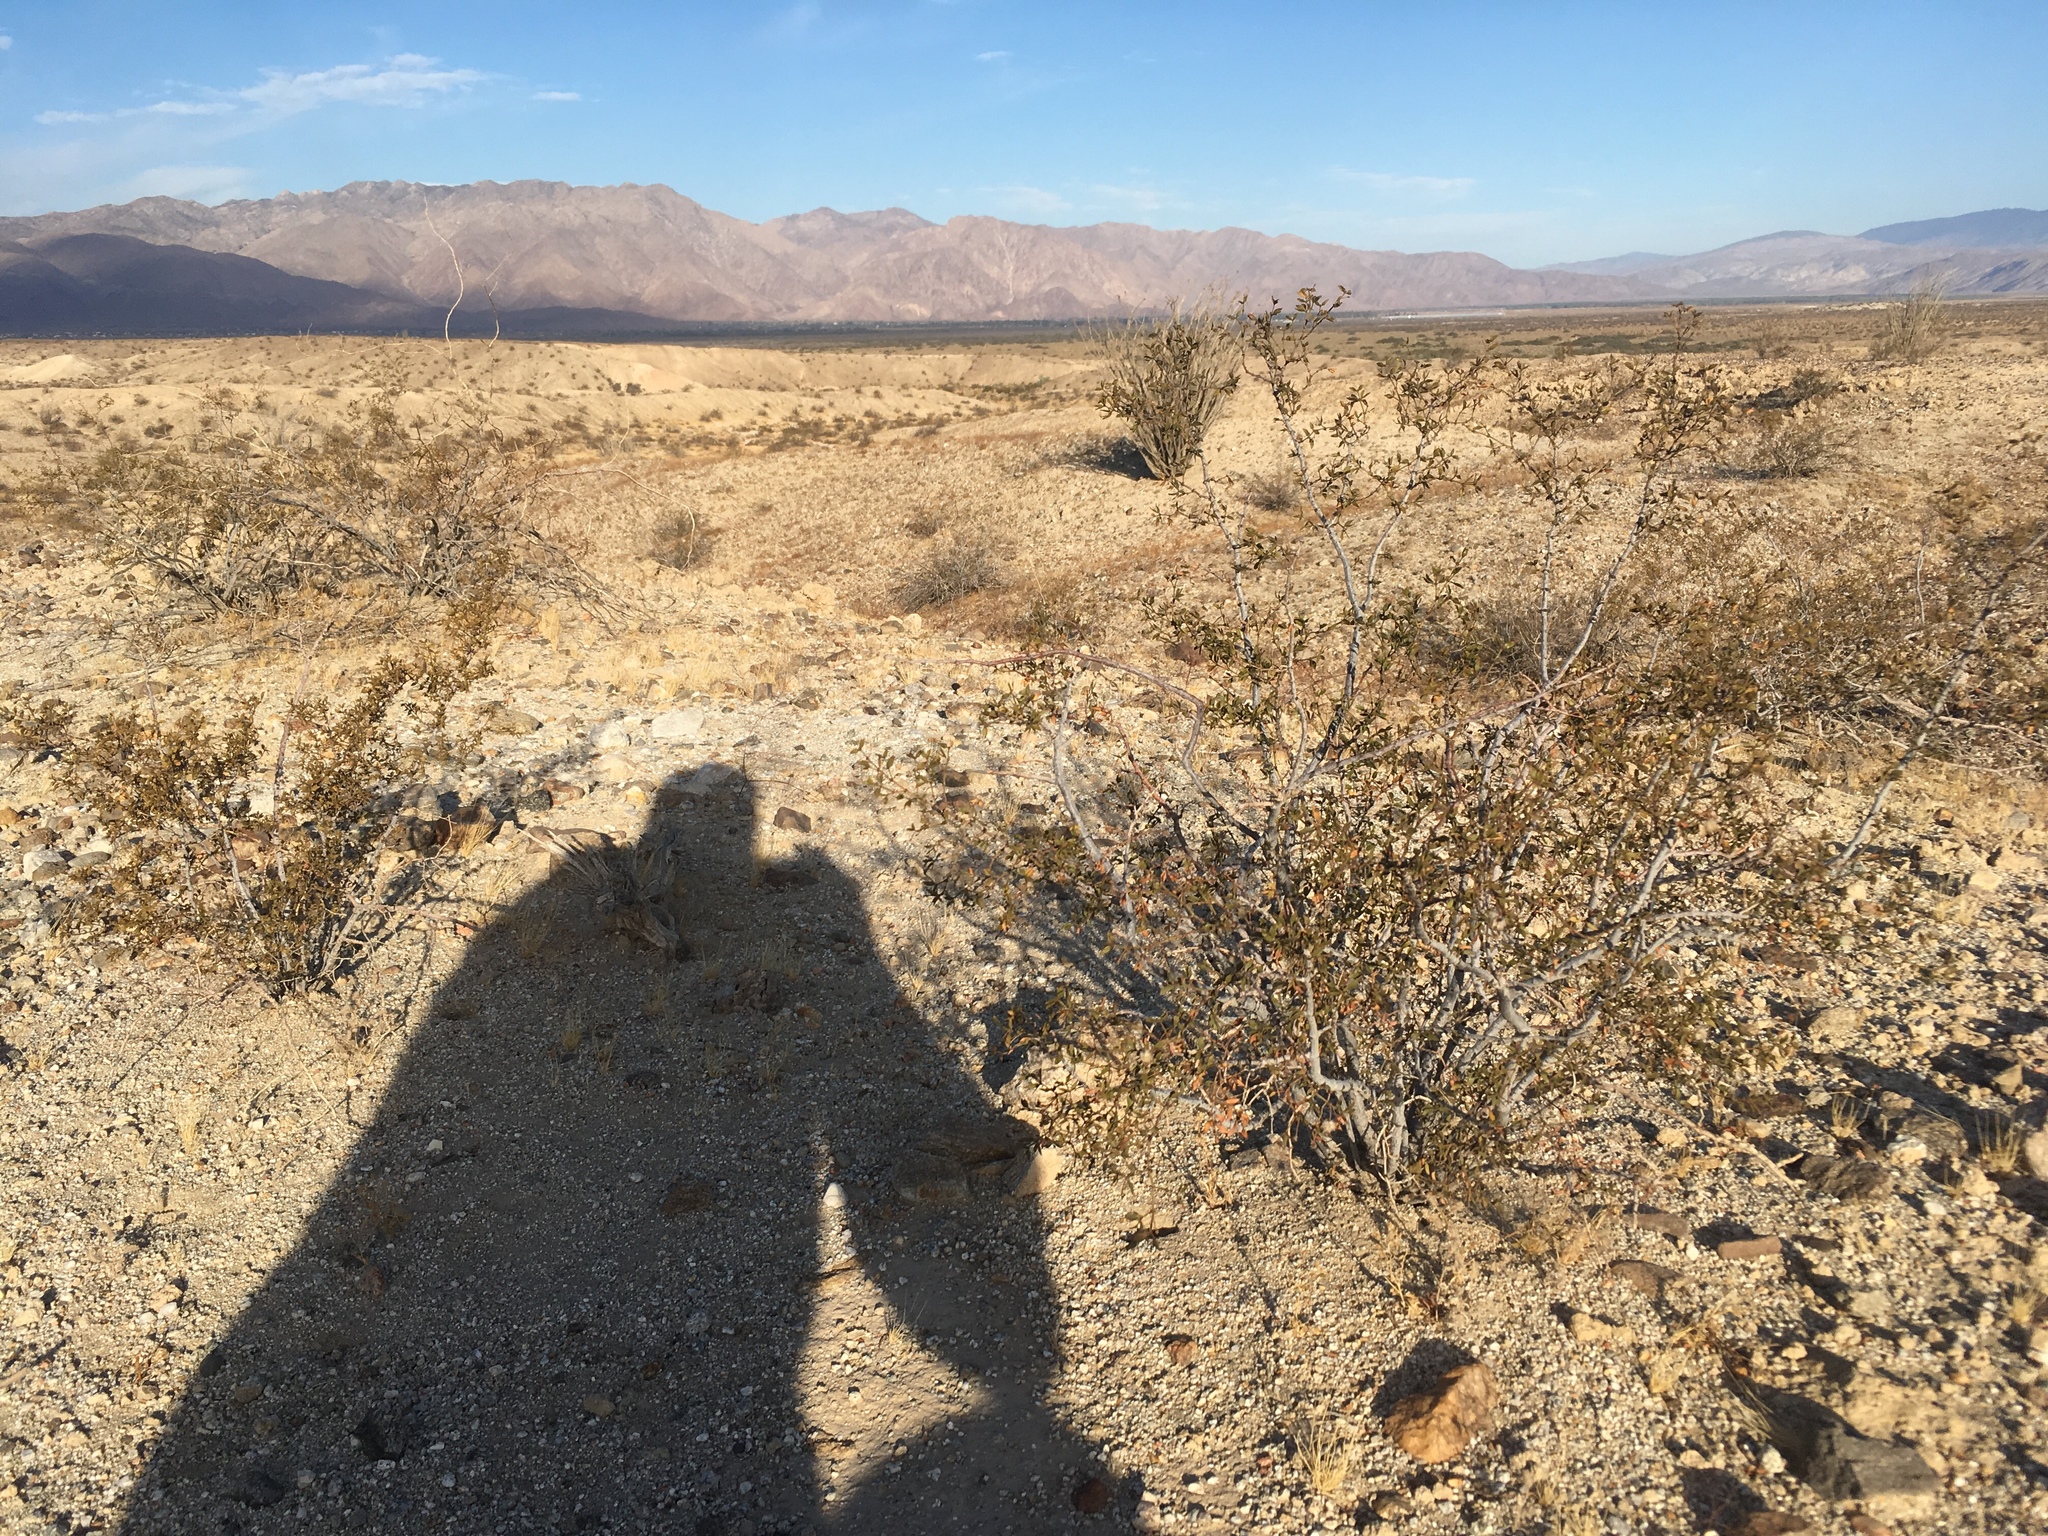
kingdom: Plantae
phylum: Tracheophyta
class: Magnoliopsida
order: Zygophyllales
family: Zygophyllaceae
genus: Larrea
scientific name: Larrea tridentata
